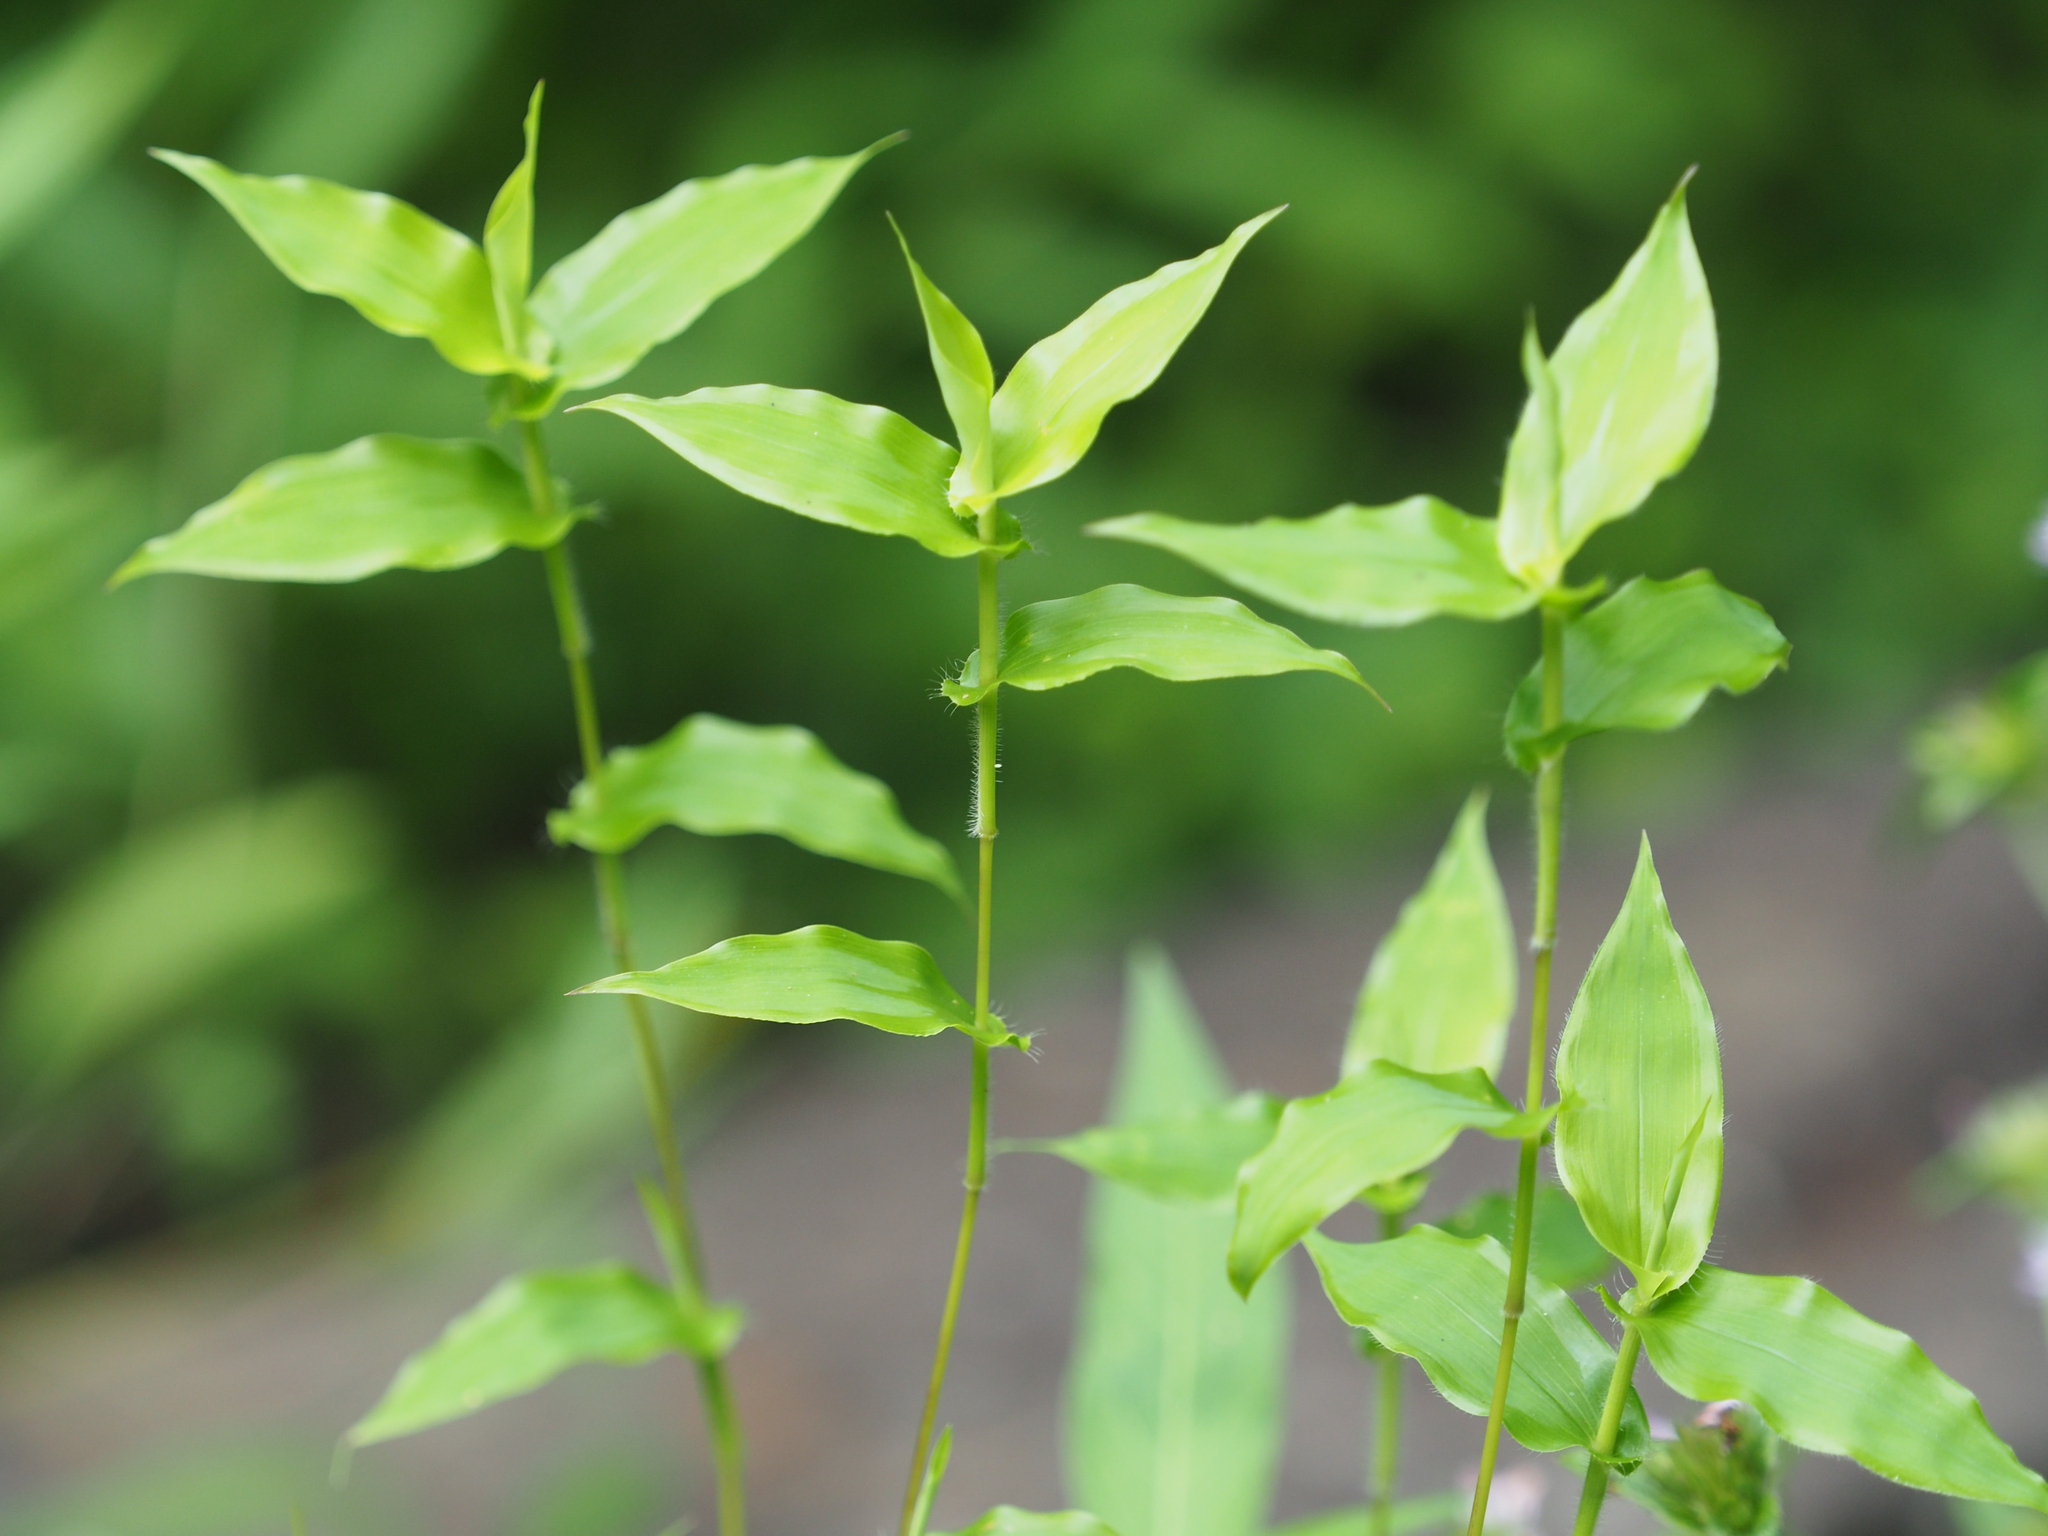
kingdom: Plantae
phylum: Tracheophyta
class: Liliopsida
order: Poales
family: Poaceae
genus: Arthraxon
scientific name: Arthraxon hispidus
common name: Small carpgrass
